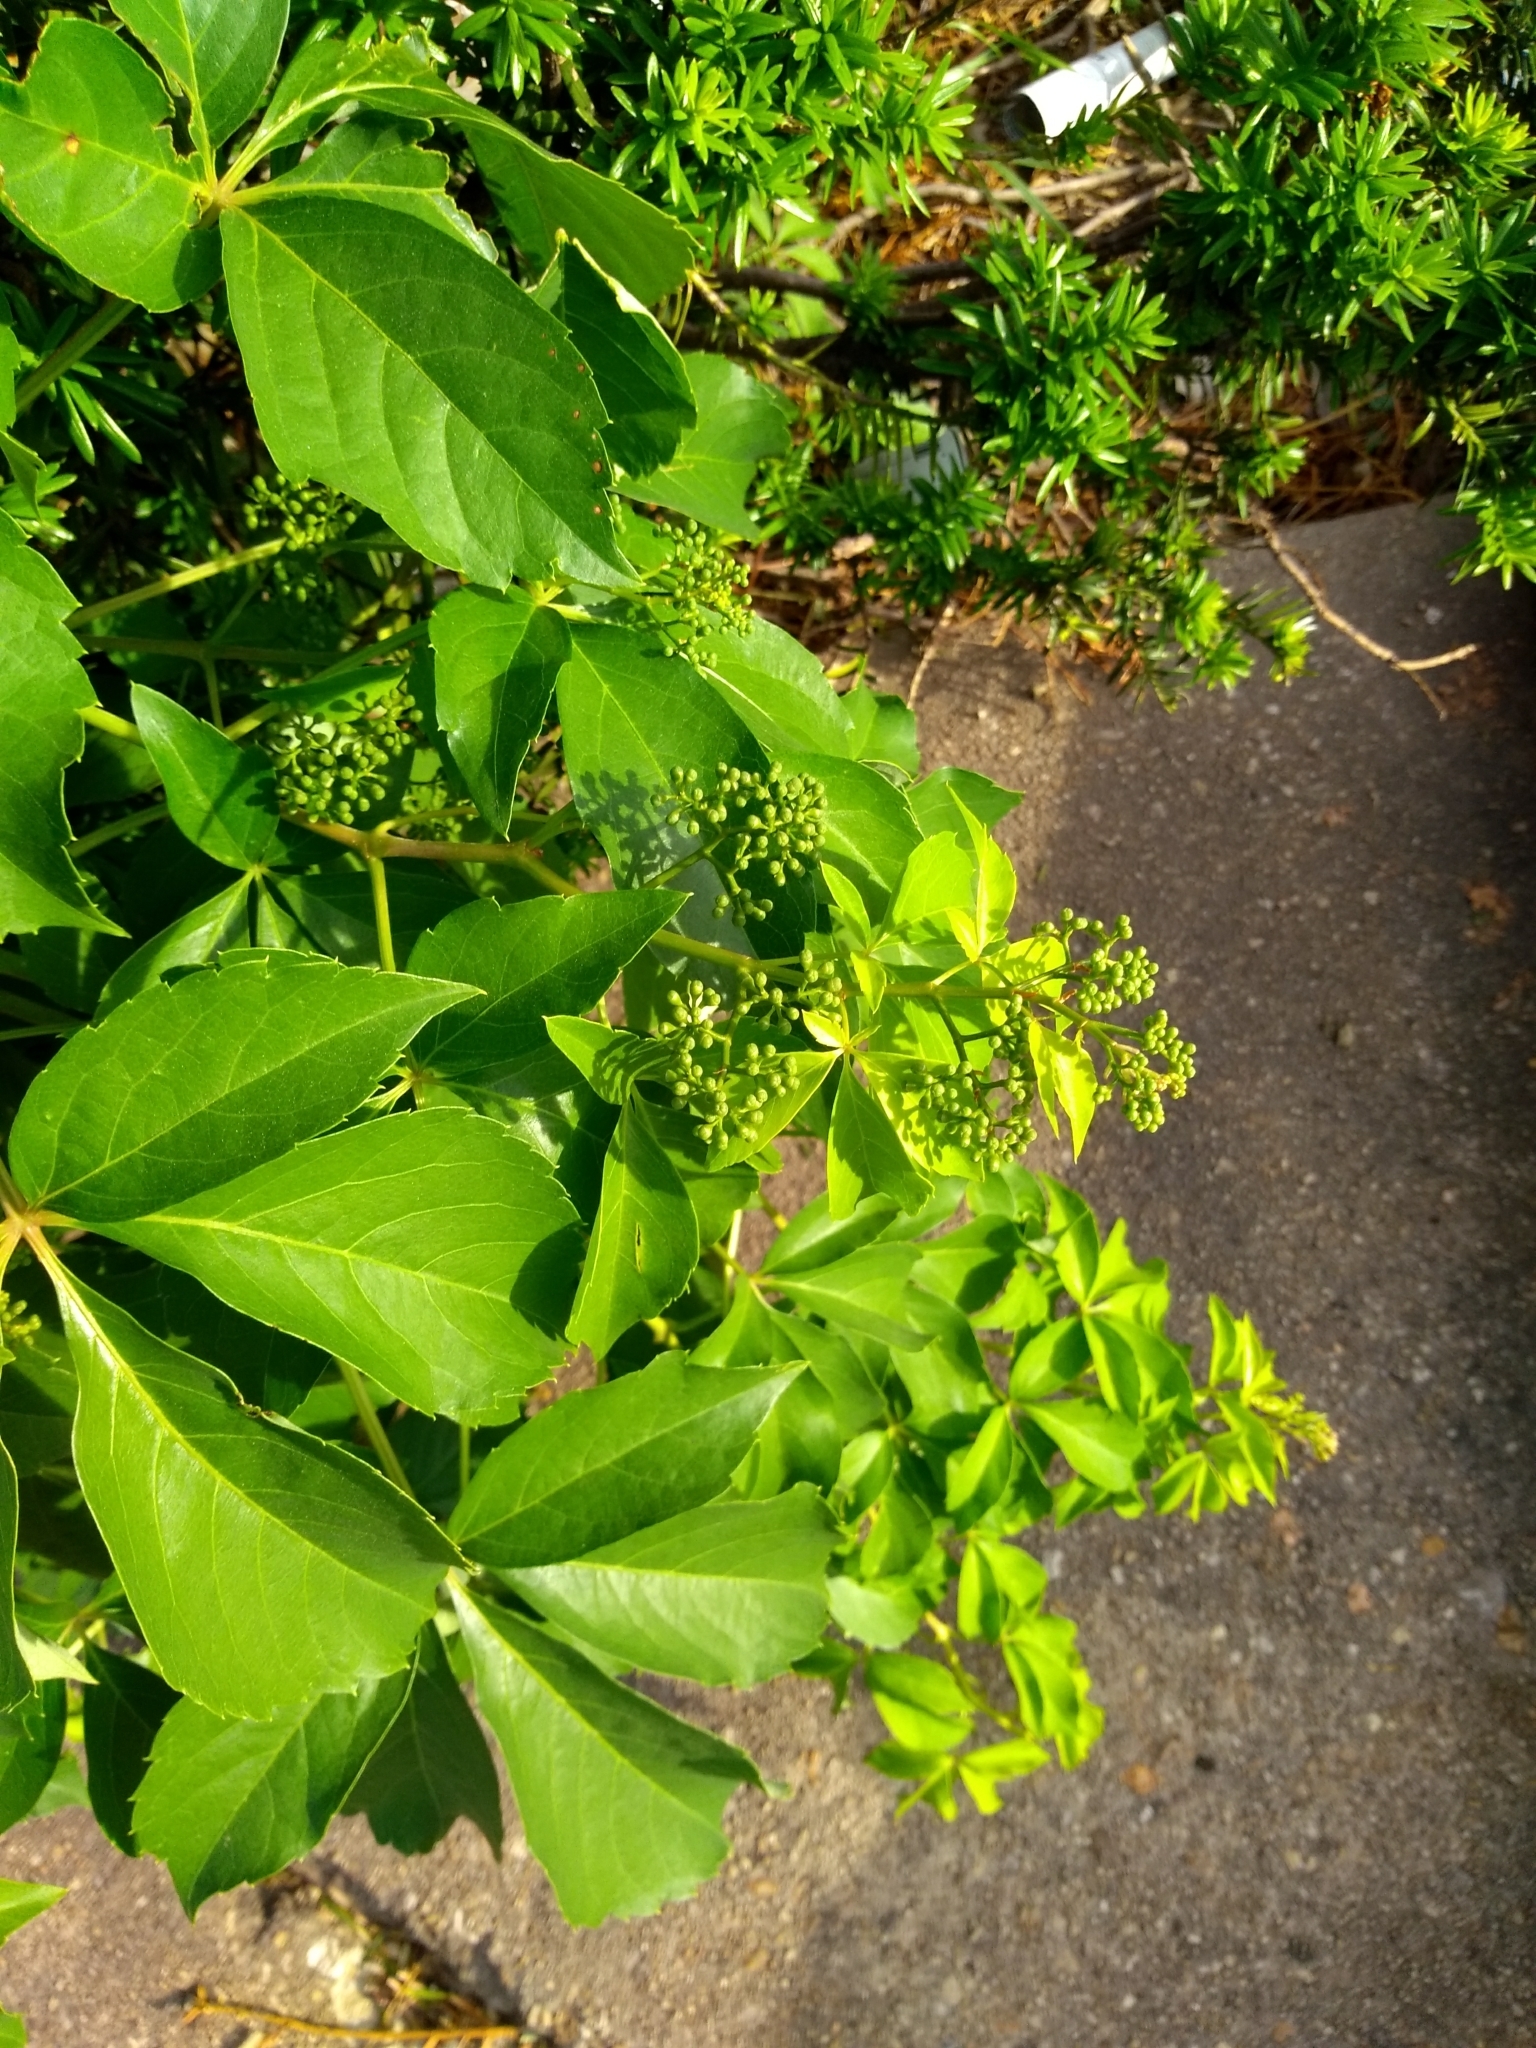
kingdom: Plantae
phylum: Tracheophyta
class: Magnoliopsida
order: Vitales
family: Vitaceae
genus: Parthenocissus
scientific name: Parthenocissus quinquefolia
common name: Virginia-creeper
